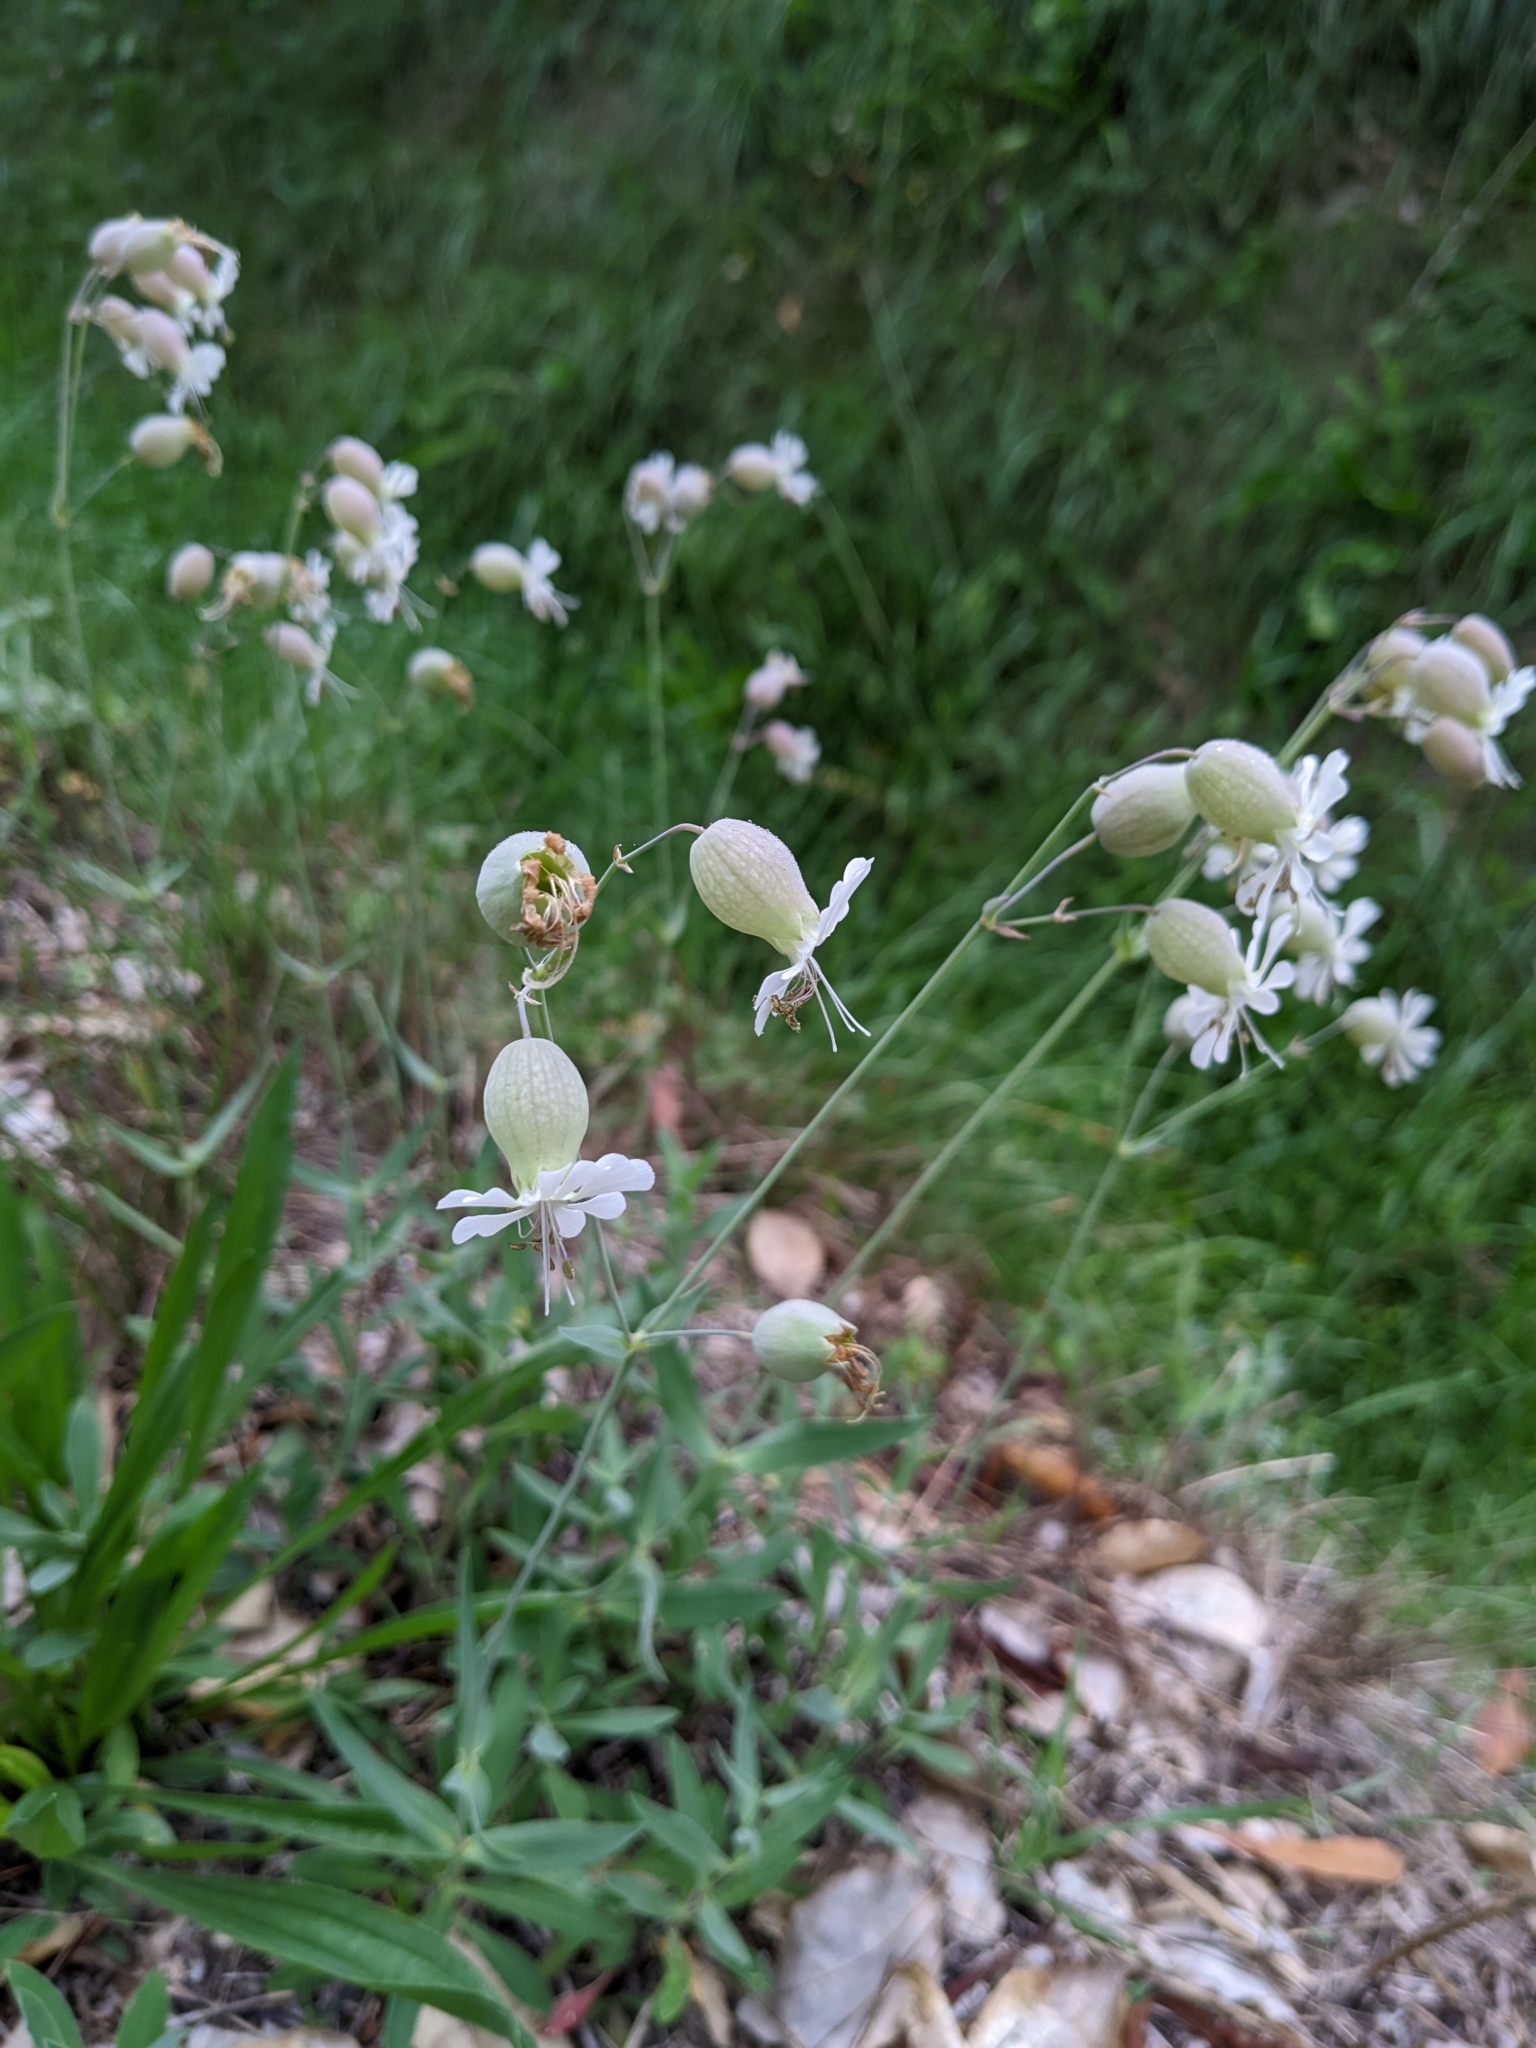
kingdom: Plantae
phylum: Tracheophyta
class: Magnoliopsida
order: Caryophyllales
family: Caryophyllaceae
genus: Silene
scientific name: Silene vulgaris
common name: Bladder campion
